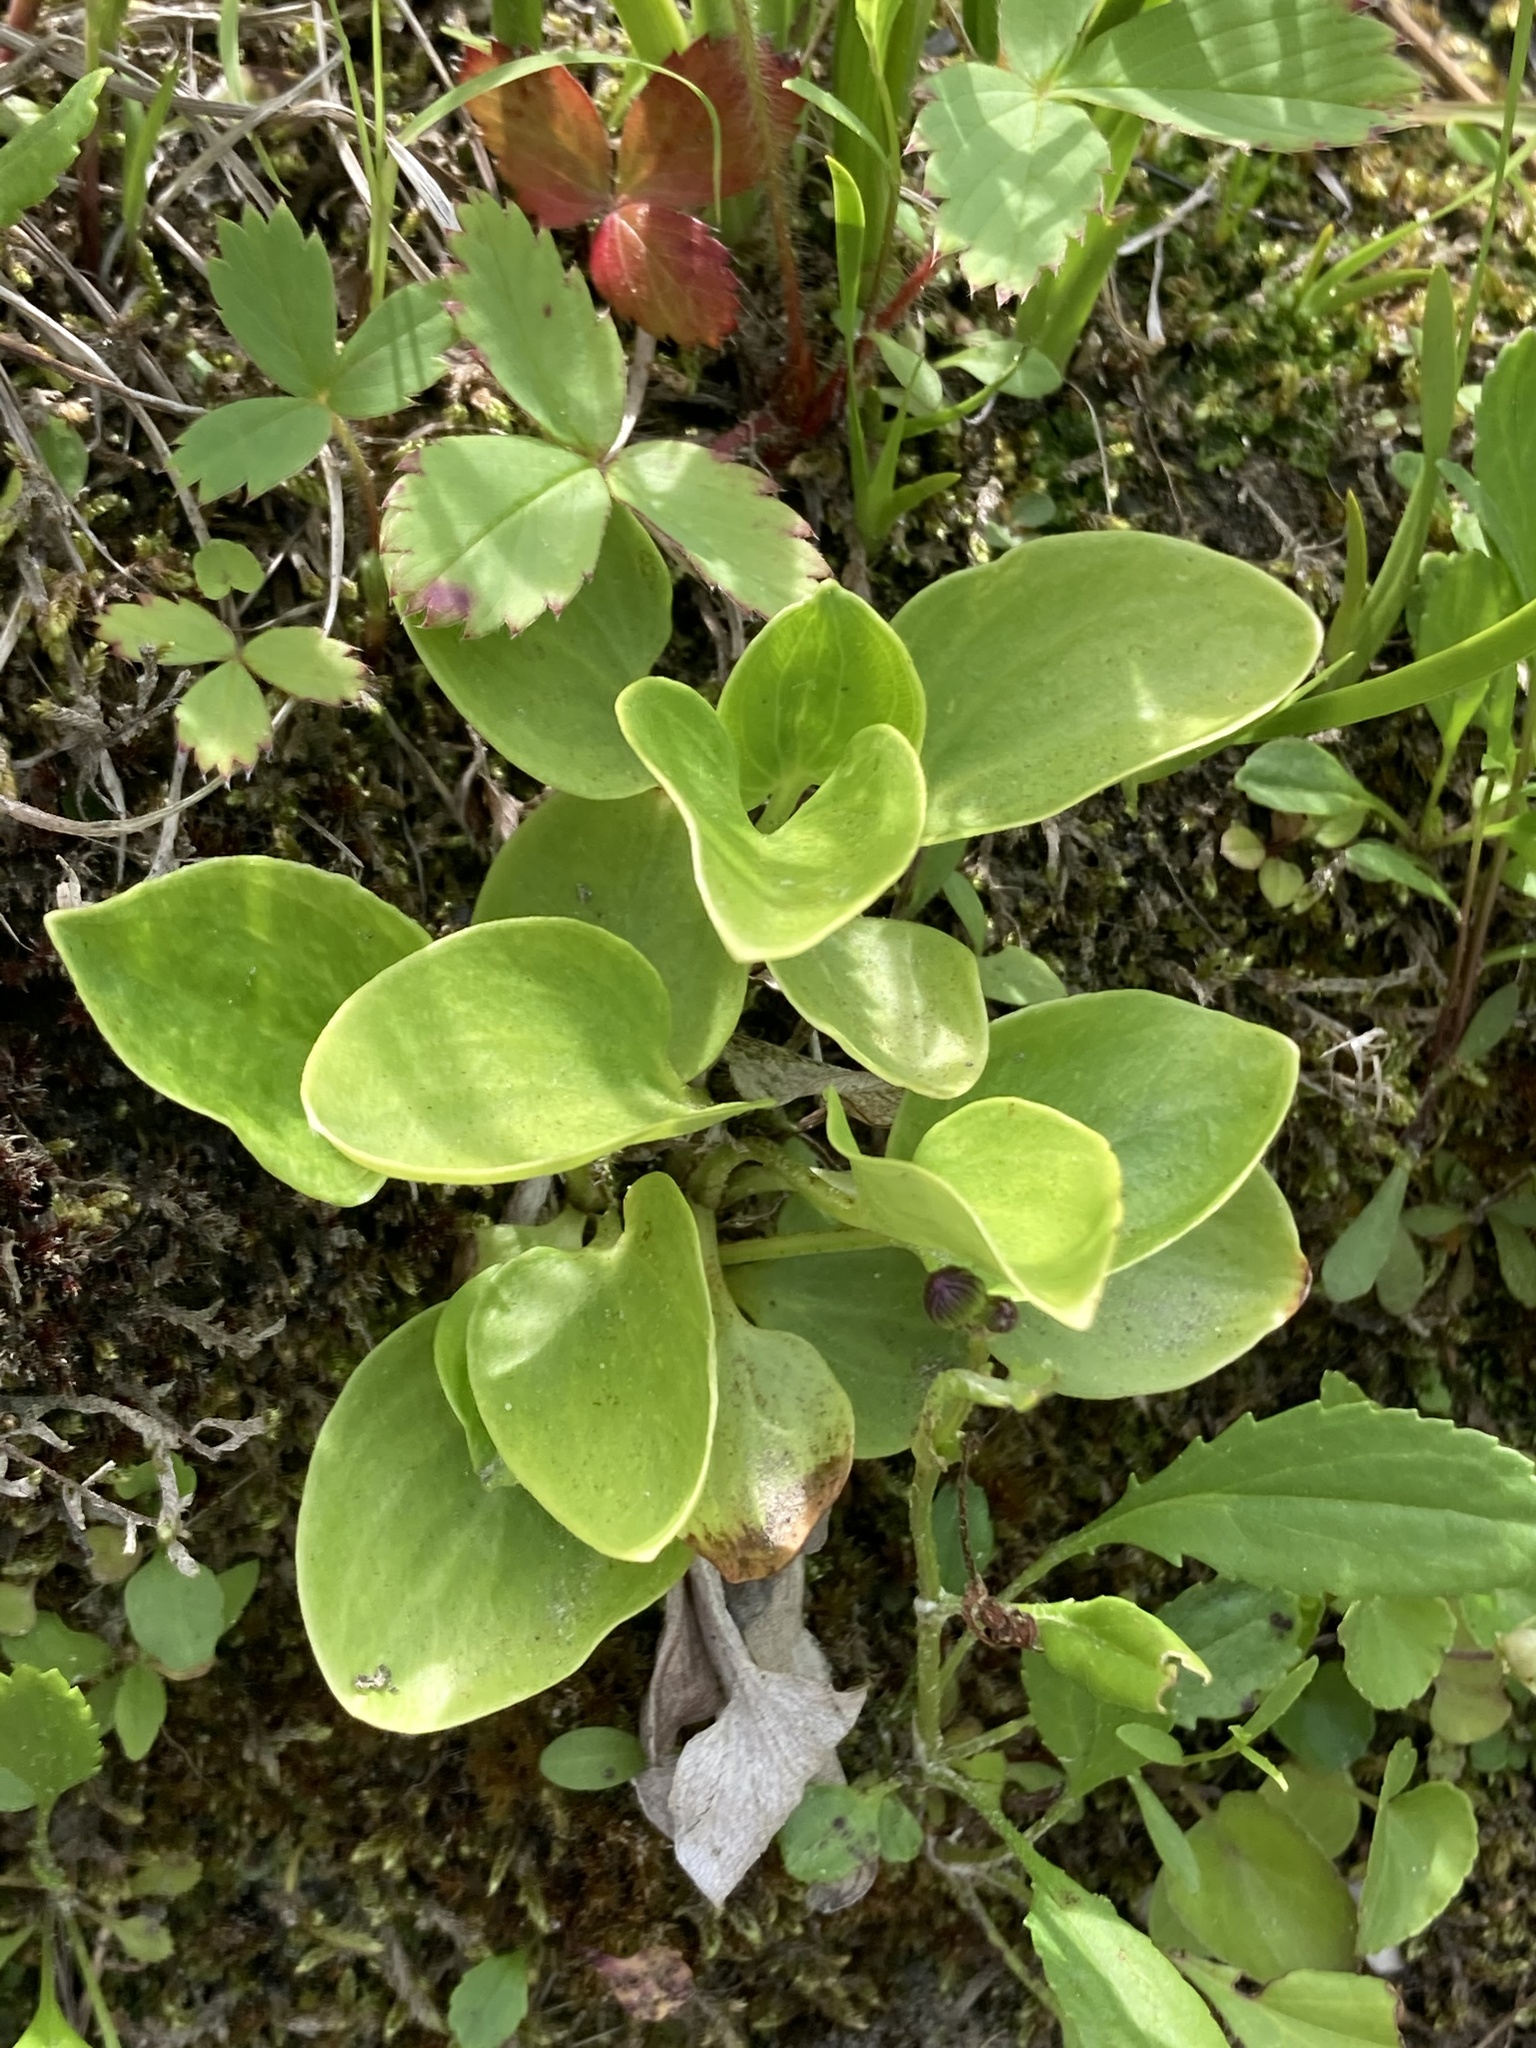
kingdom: Plantae
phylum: Tracheophyta
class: Magnoliopsida
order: Celastrales
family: Parnassiaceae
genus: Parnassia
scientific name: Parnassia glauca
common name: American grass-of-parnassus
